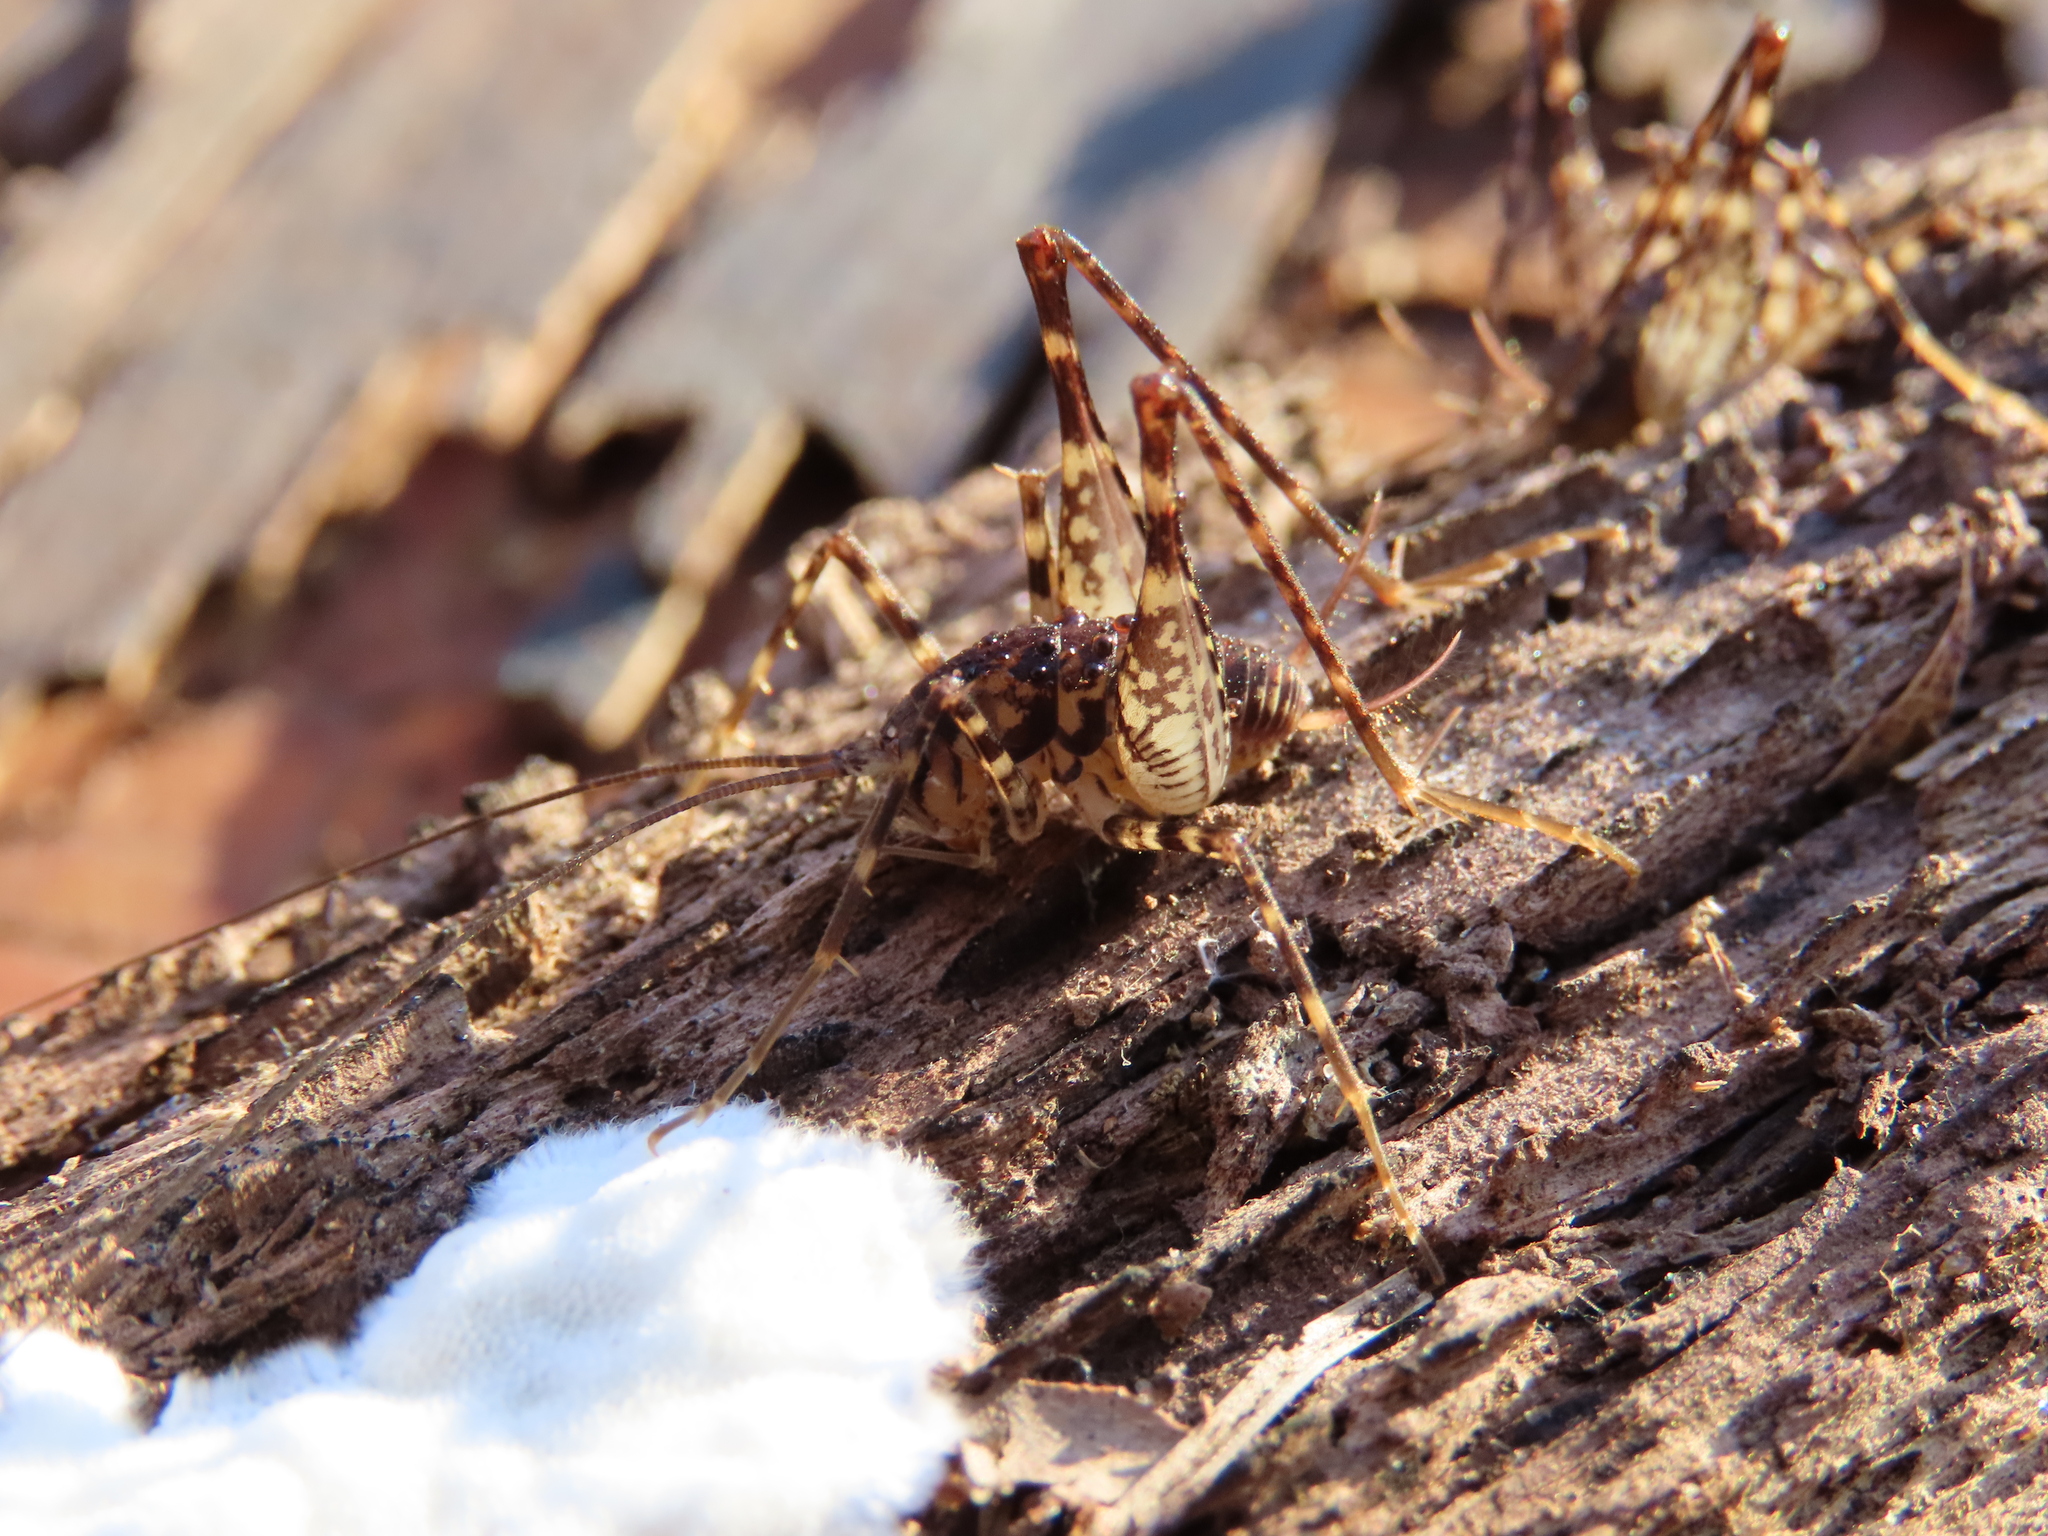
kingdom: Animalia
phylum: Arthropoda
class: Insecta
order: Orthoptera
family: Rhaphidophoridae
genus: Diestrammena
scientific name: Diestrammena japanica
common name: Japanese camel cricket
